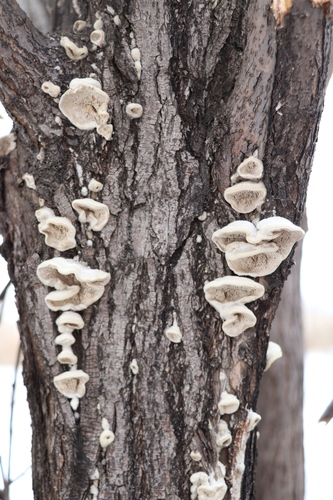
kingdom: Fungi
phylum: Basidiomycota
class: Agaricomycetes
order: Polyporales
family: Cerrenaceae
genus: Cerrena
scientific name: Cerrena unicolor
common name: Mossy maze polypore
